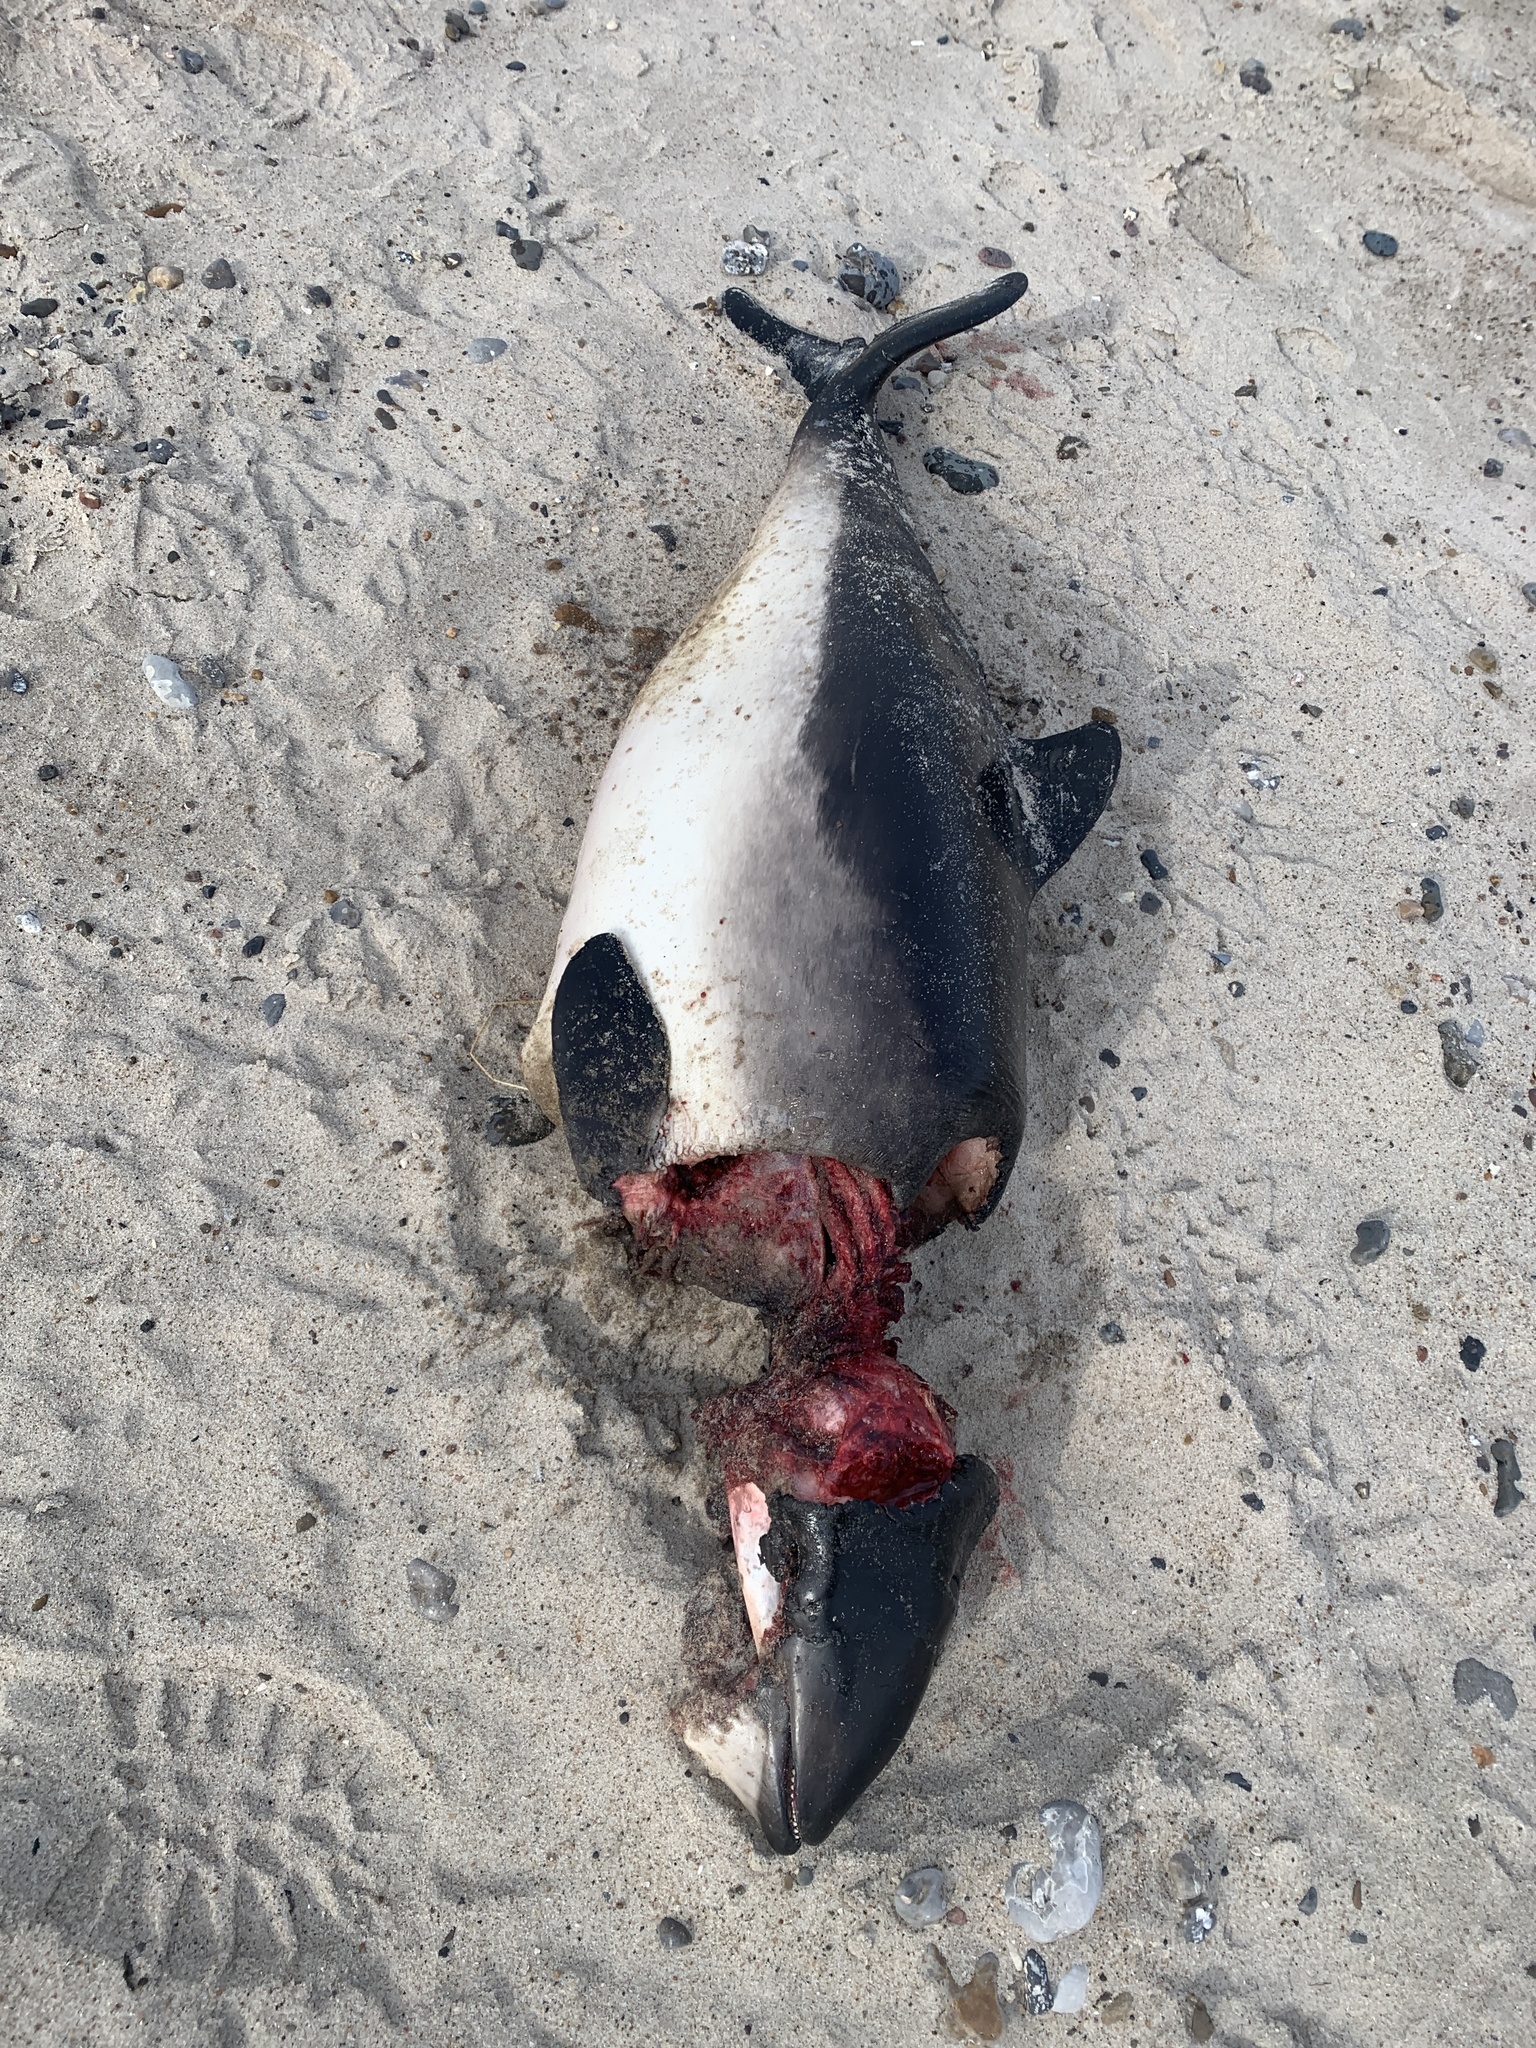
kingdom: Animalia
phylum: Chordata
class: Mammalia
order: Cetacea
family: Phocoenidae
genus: Phocoena
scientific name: Phocoena phocoena
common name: Harbor porpoise
